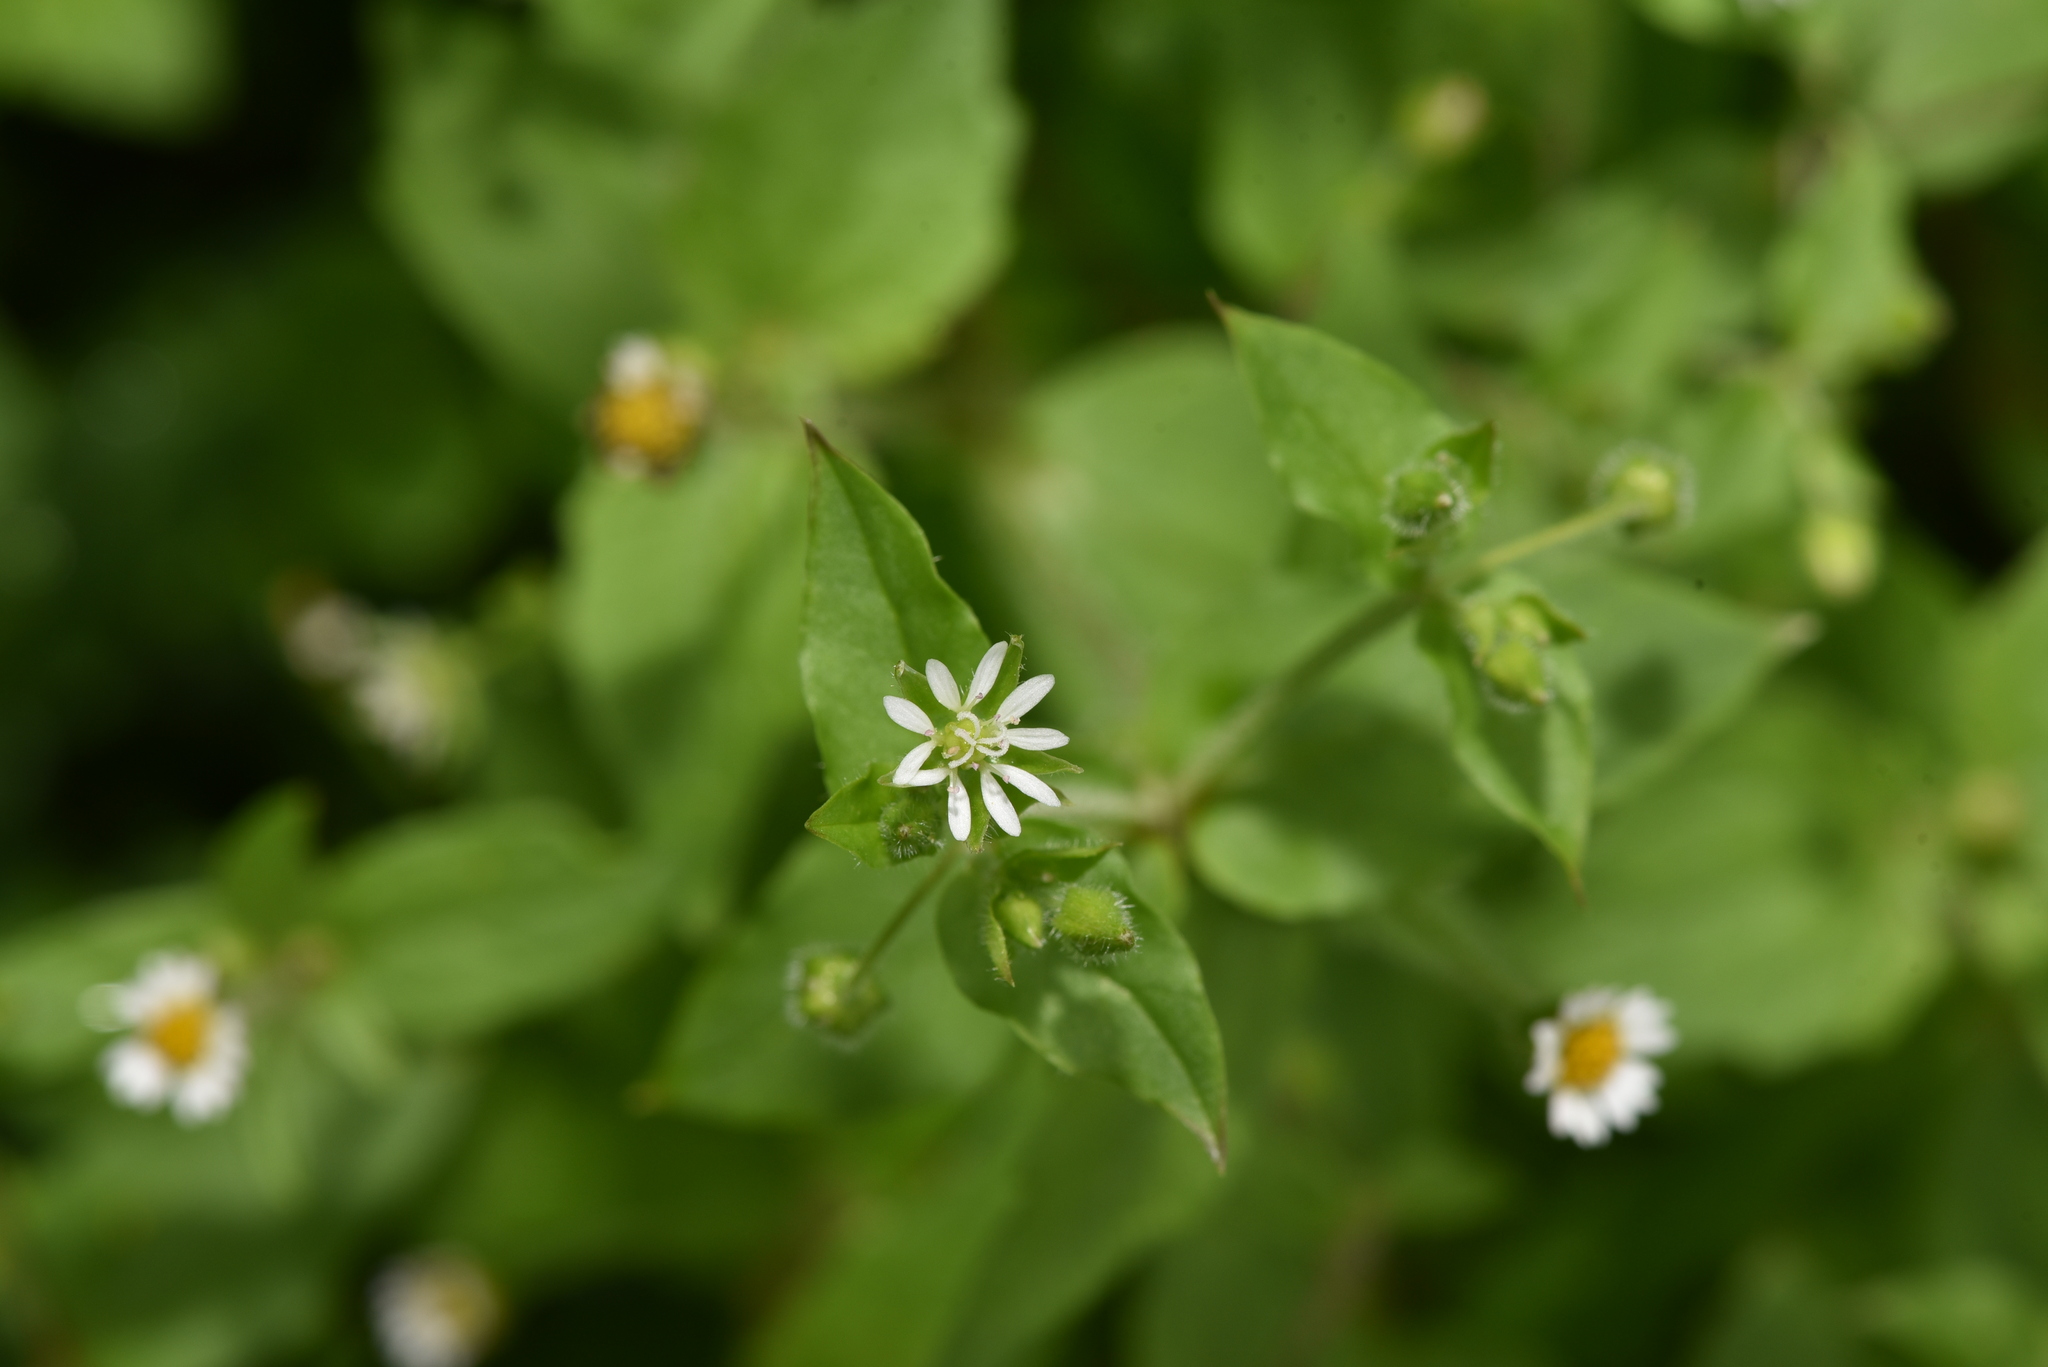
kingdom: Plantae
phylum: Tracheophyta
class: Magnoliopsida
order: Caryophyllales
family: Caryophyllaceae
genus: Stellaria
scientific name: Stellaria aquatica
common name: Water chickweed
